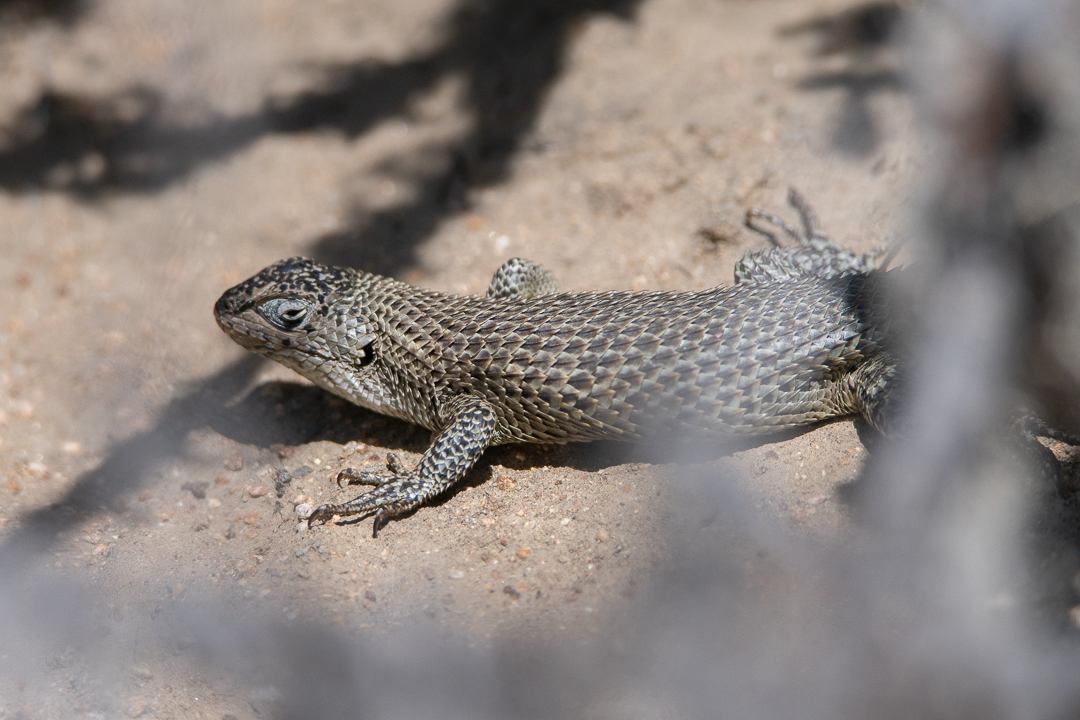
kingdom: Animalia
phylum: Chordata
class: Squamata
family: Liolaemidae
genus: Liolaemus
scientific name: Liolaemus nitidus
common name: Shining tree iguana
